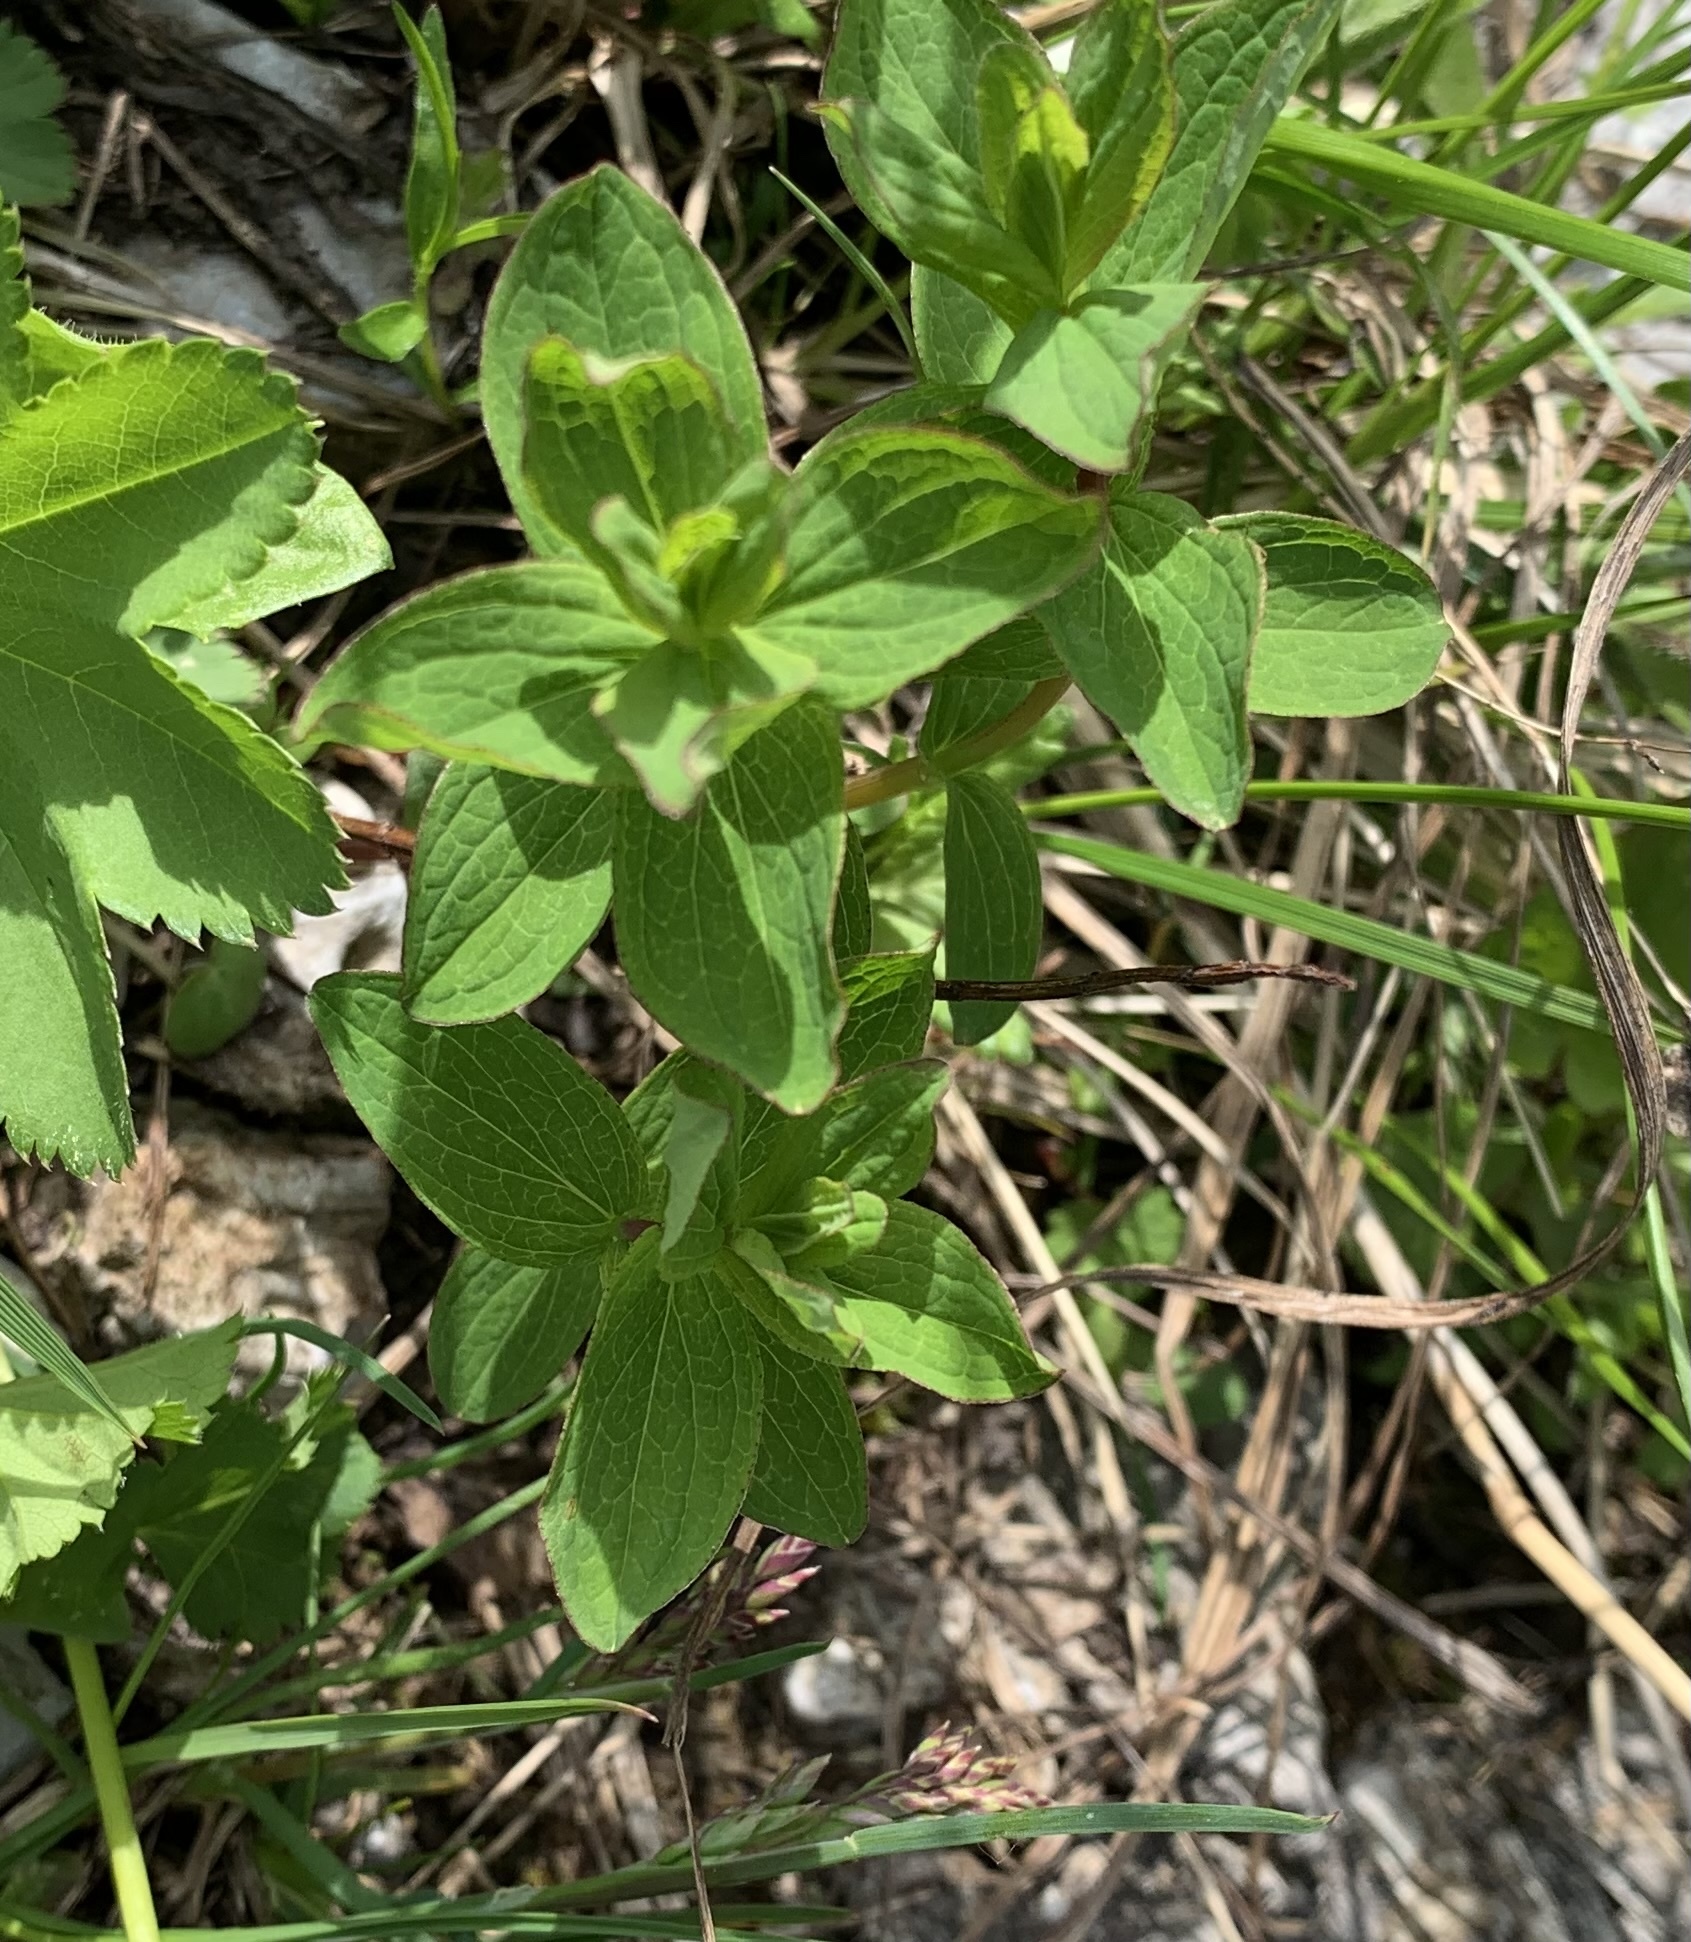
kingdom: Plantae
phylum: Tracheophyta
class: Magnoliopsida
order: Malpighiales
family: Hypericaceae
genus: Hypericum
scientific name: Hypericum maculatum
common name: Imperforate st. john's-wort
